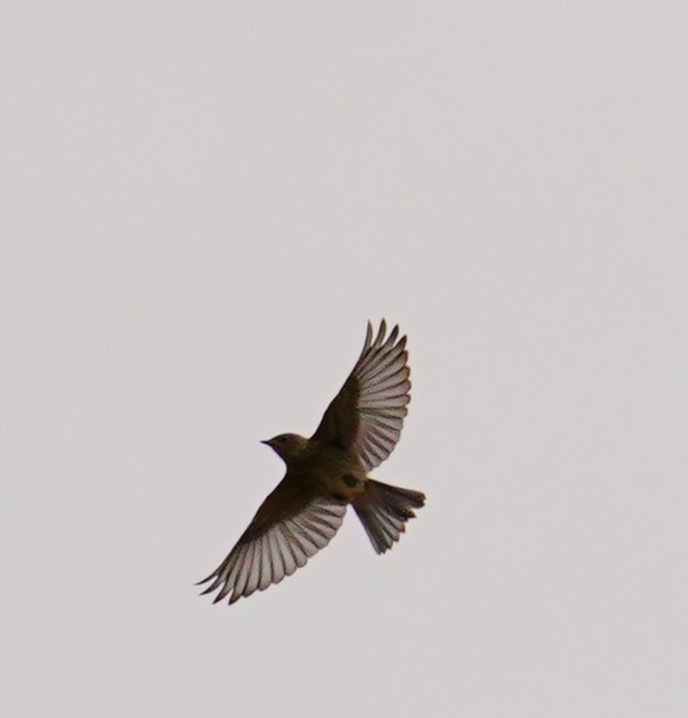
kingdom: Animalia
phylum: Chordata
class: Aves
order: Passeriformes
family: Turdidae
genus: Sialia
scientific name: Sialia mexicana
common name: Western bluebird
